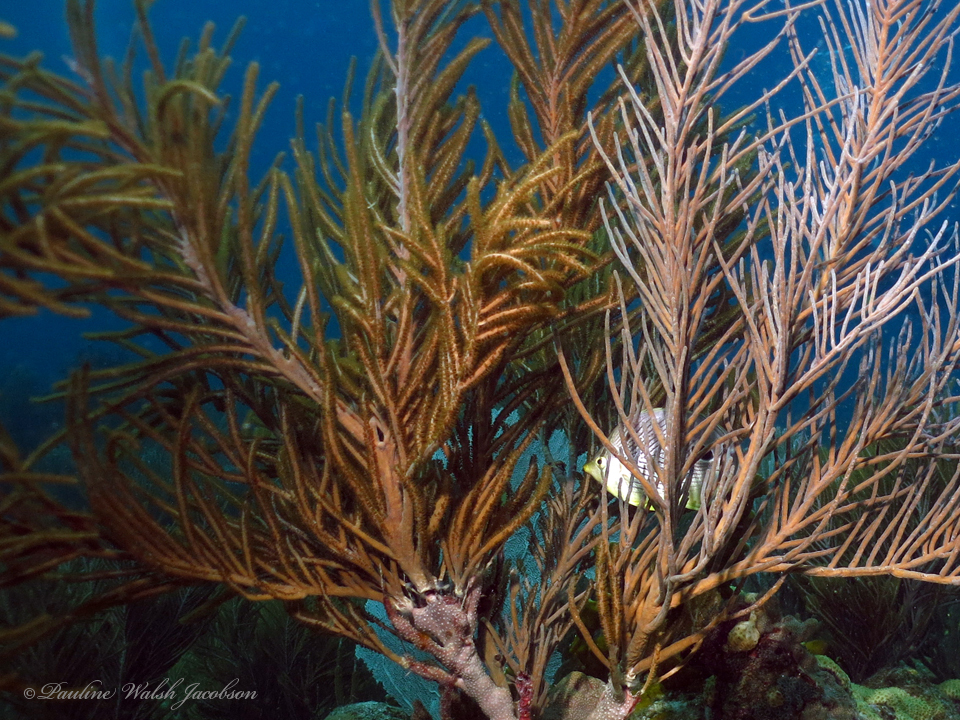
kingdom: Animalia
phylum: Chordata
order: Perciformes
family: Chaetodontidae
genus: Chaetodon
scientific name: Chaetodon capistratus
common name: Kete
